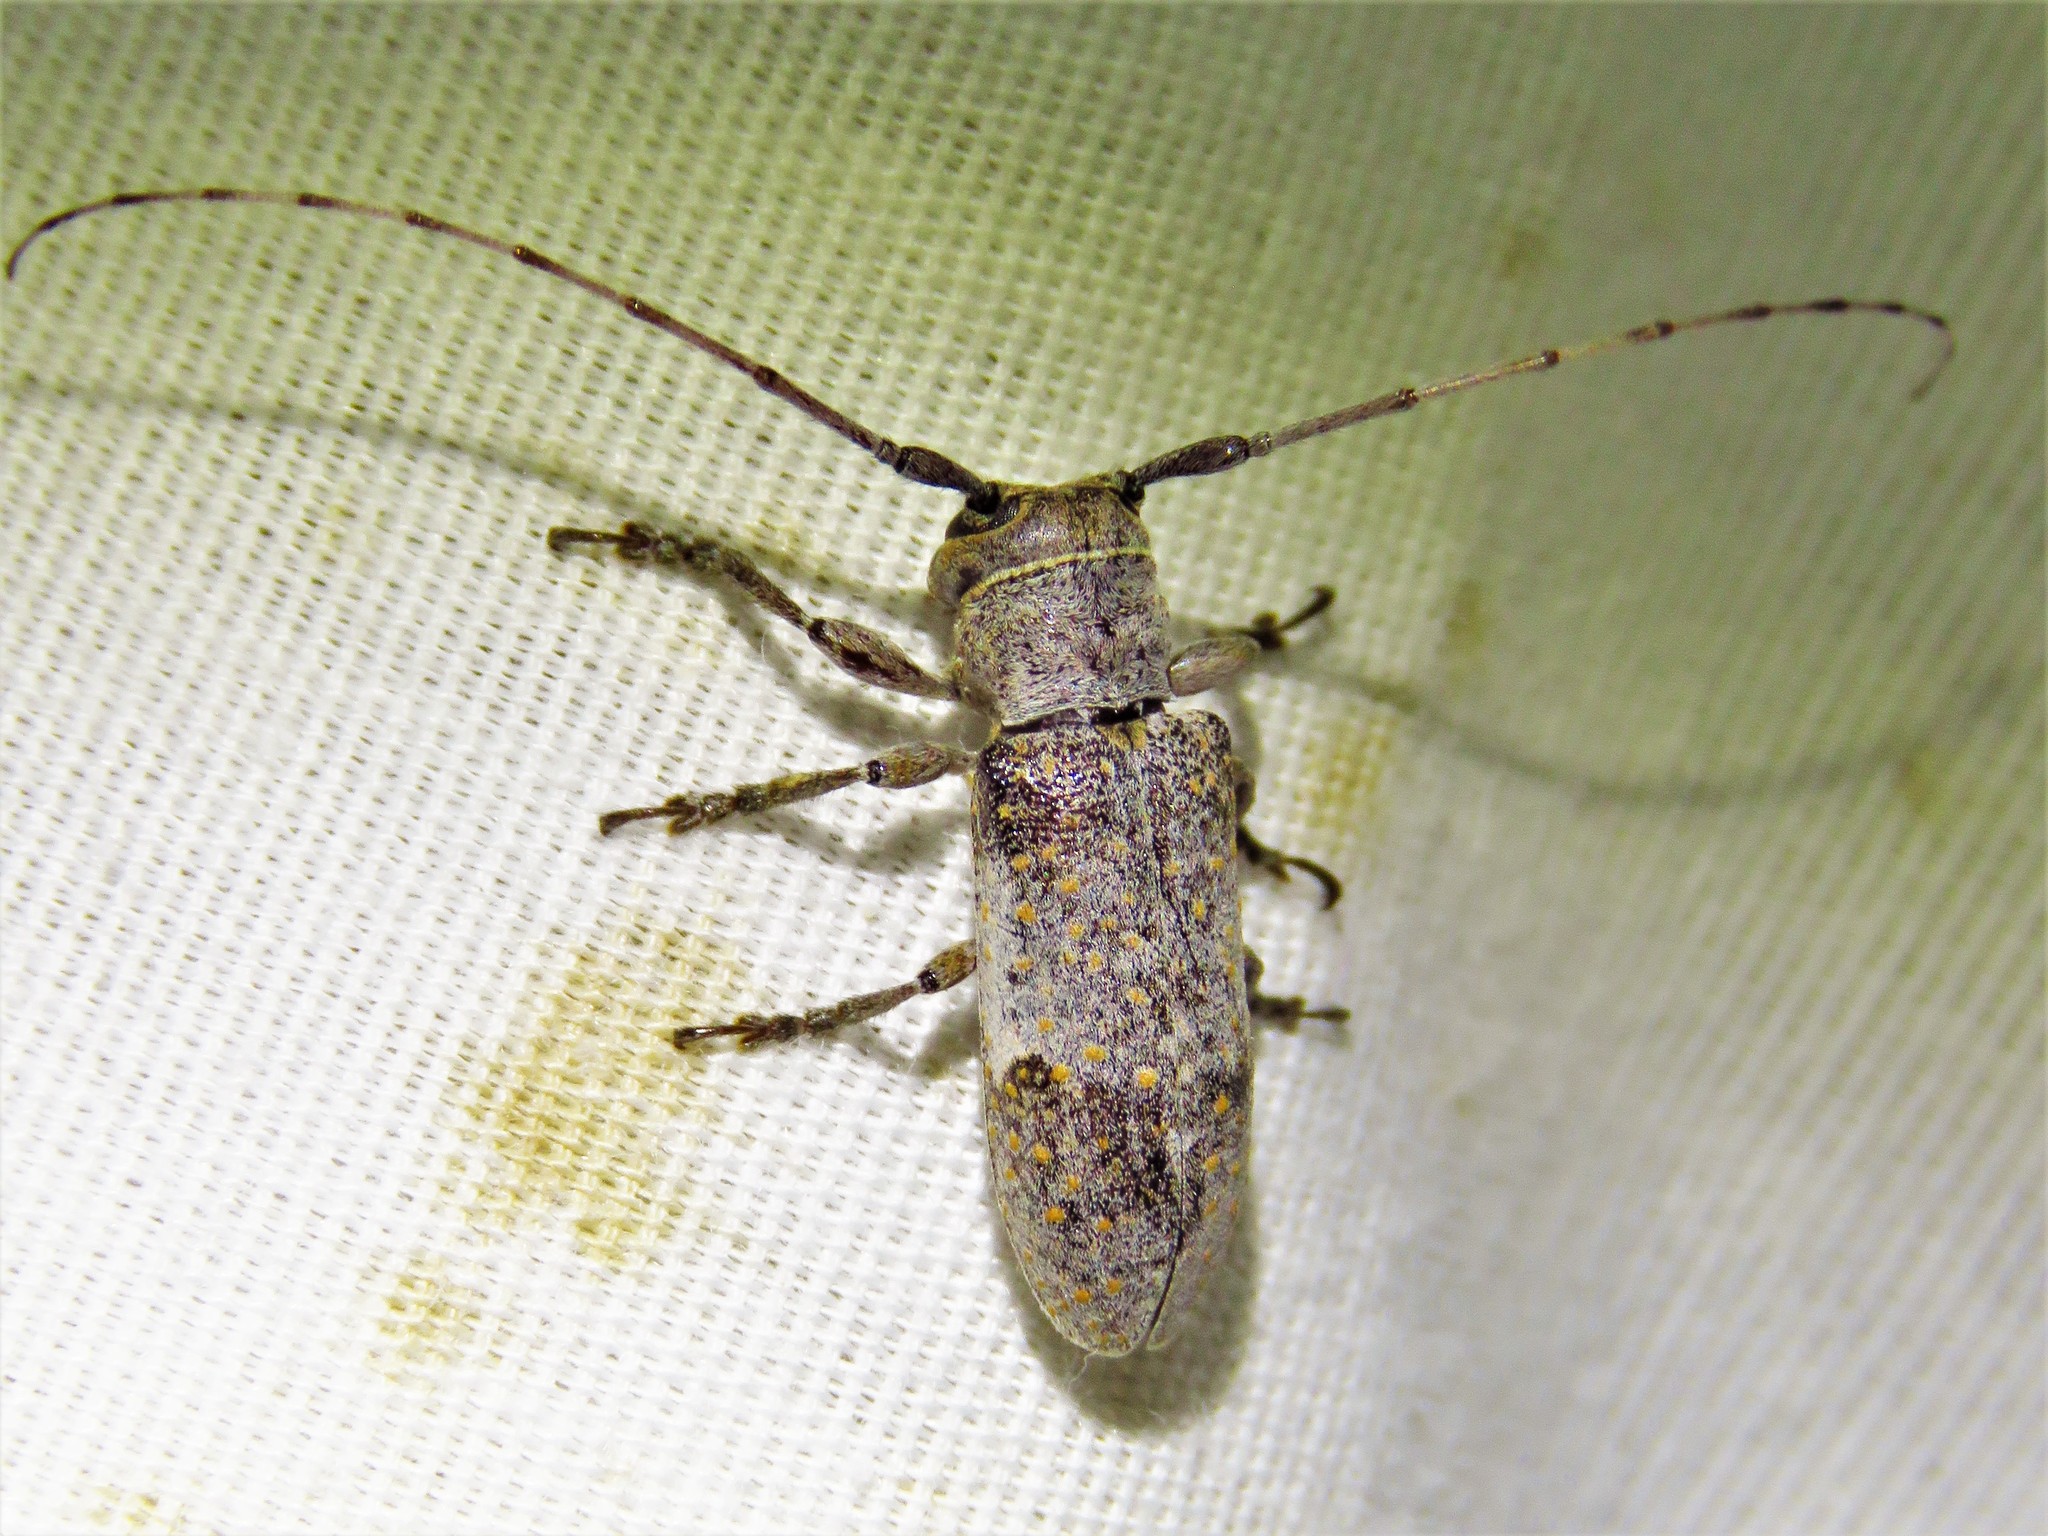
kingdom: Animalia
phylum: Arthropoda
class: Insecta
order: Coleoptera
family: Cerambycidae
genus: Oncideres
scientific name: Oncideres cingulata
